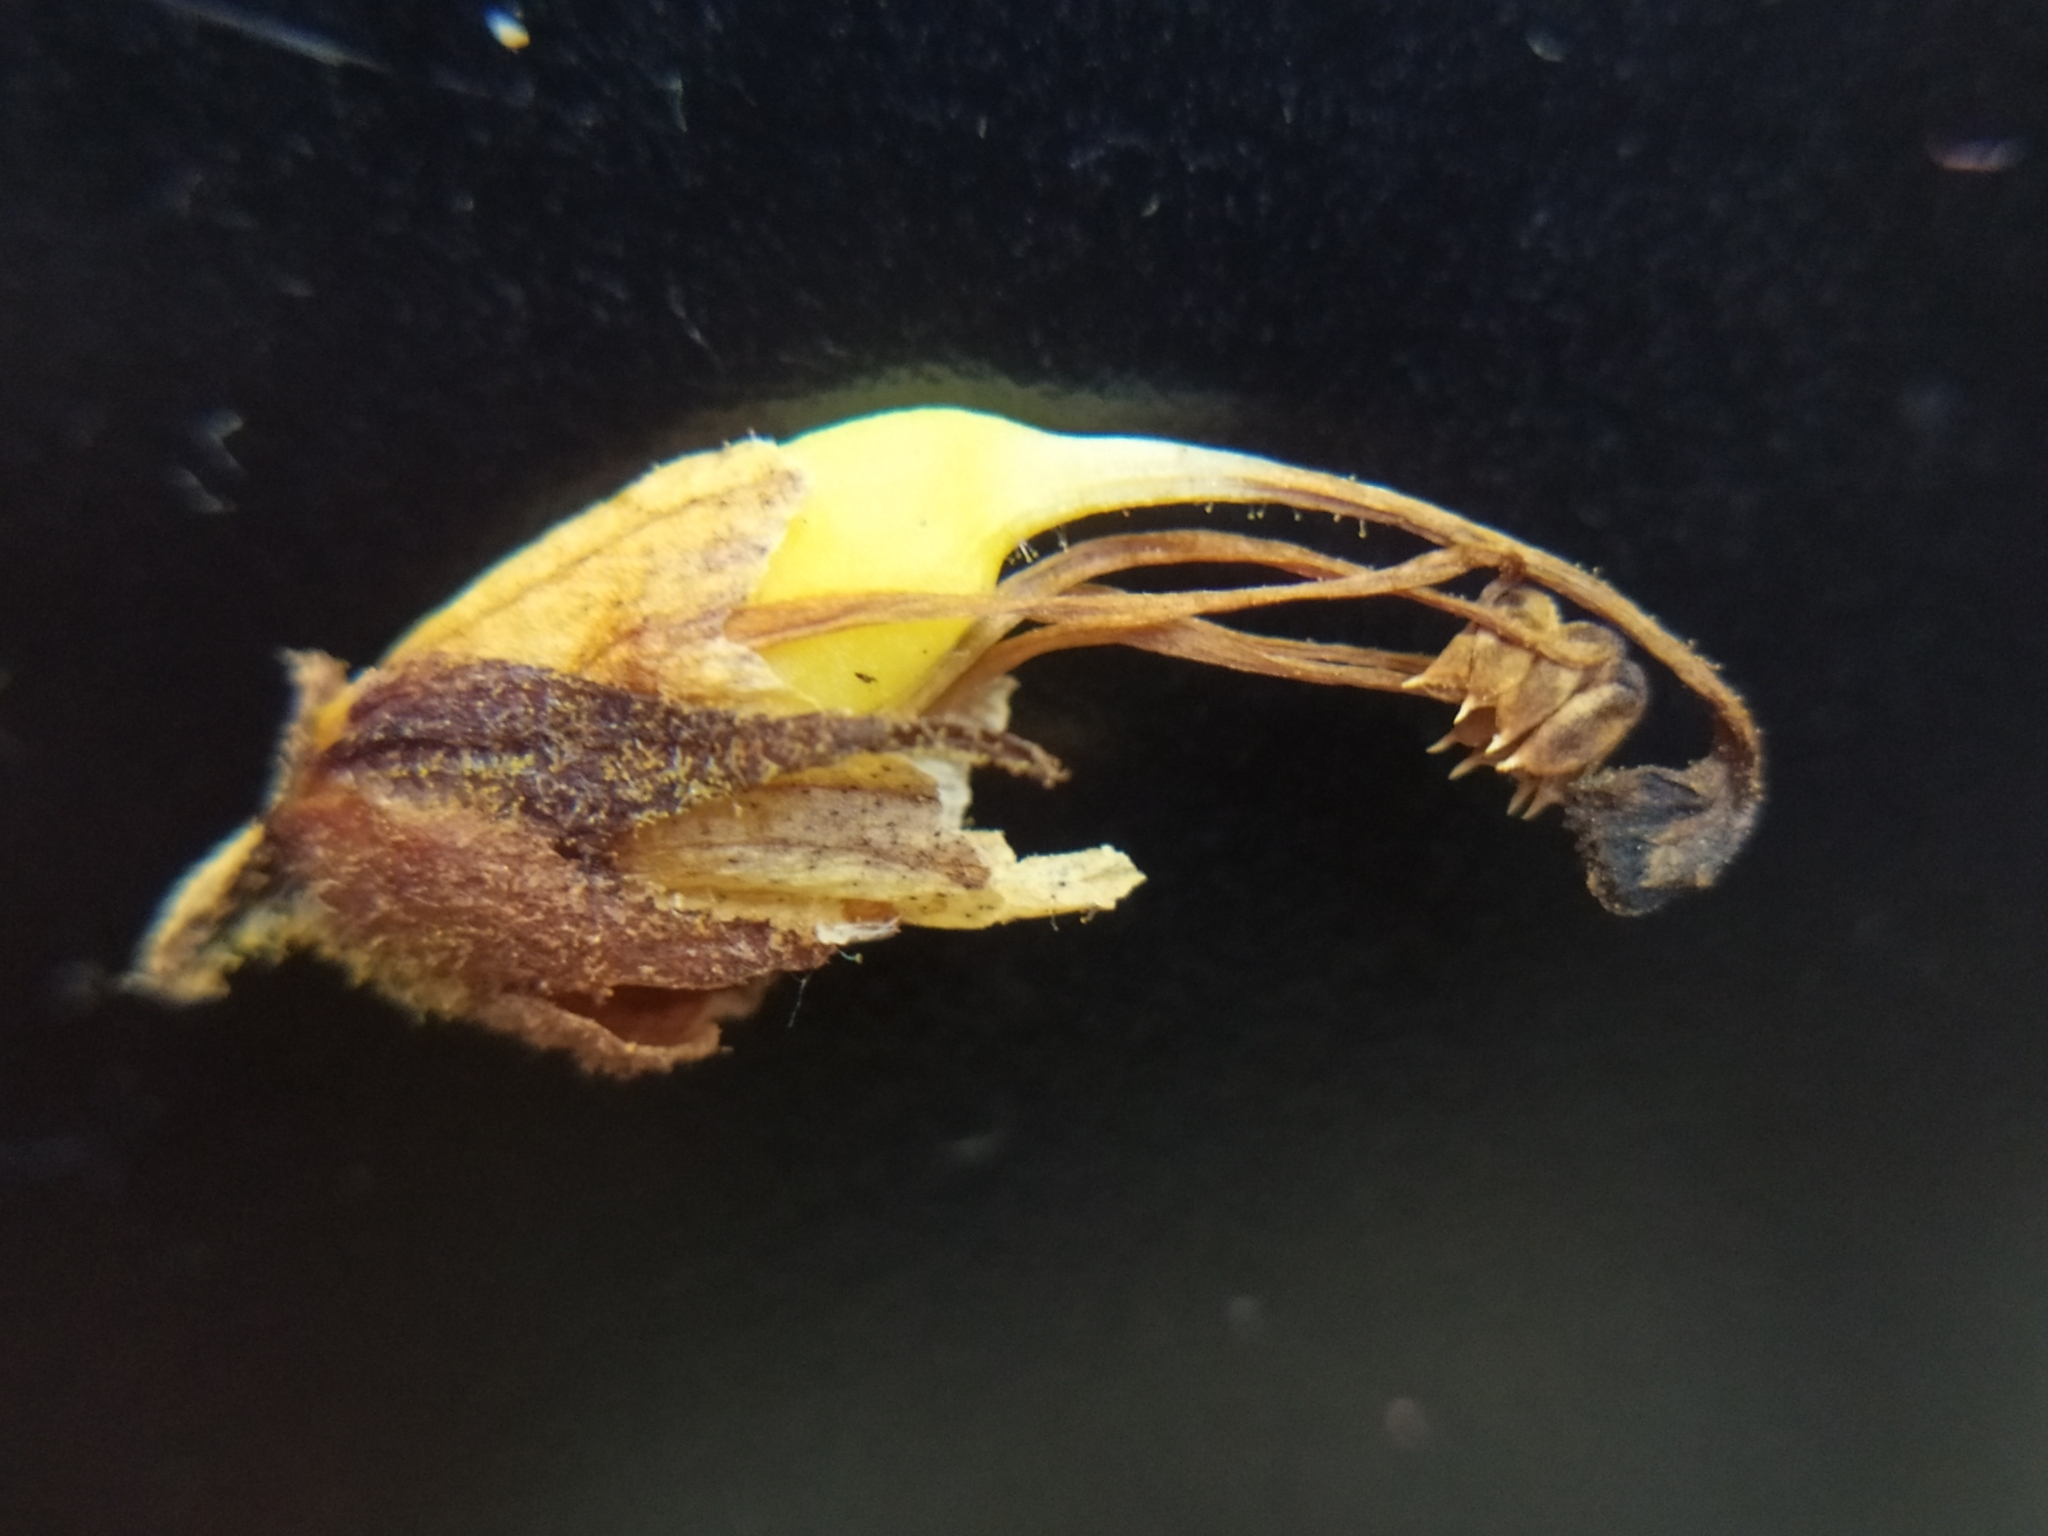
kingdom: Plantae
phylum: Tracheophyta
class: Magnoliopsida
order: Lamiales
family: Orobanchaceae
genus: Orobanche
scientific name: Orobanche reticulata
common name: Thistle broomrape
